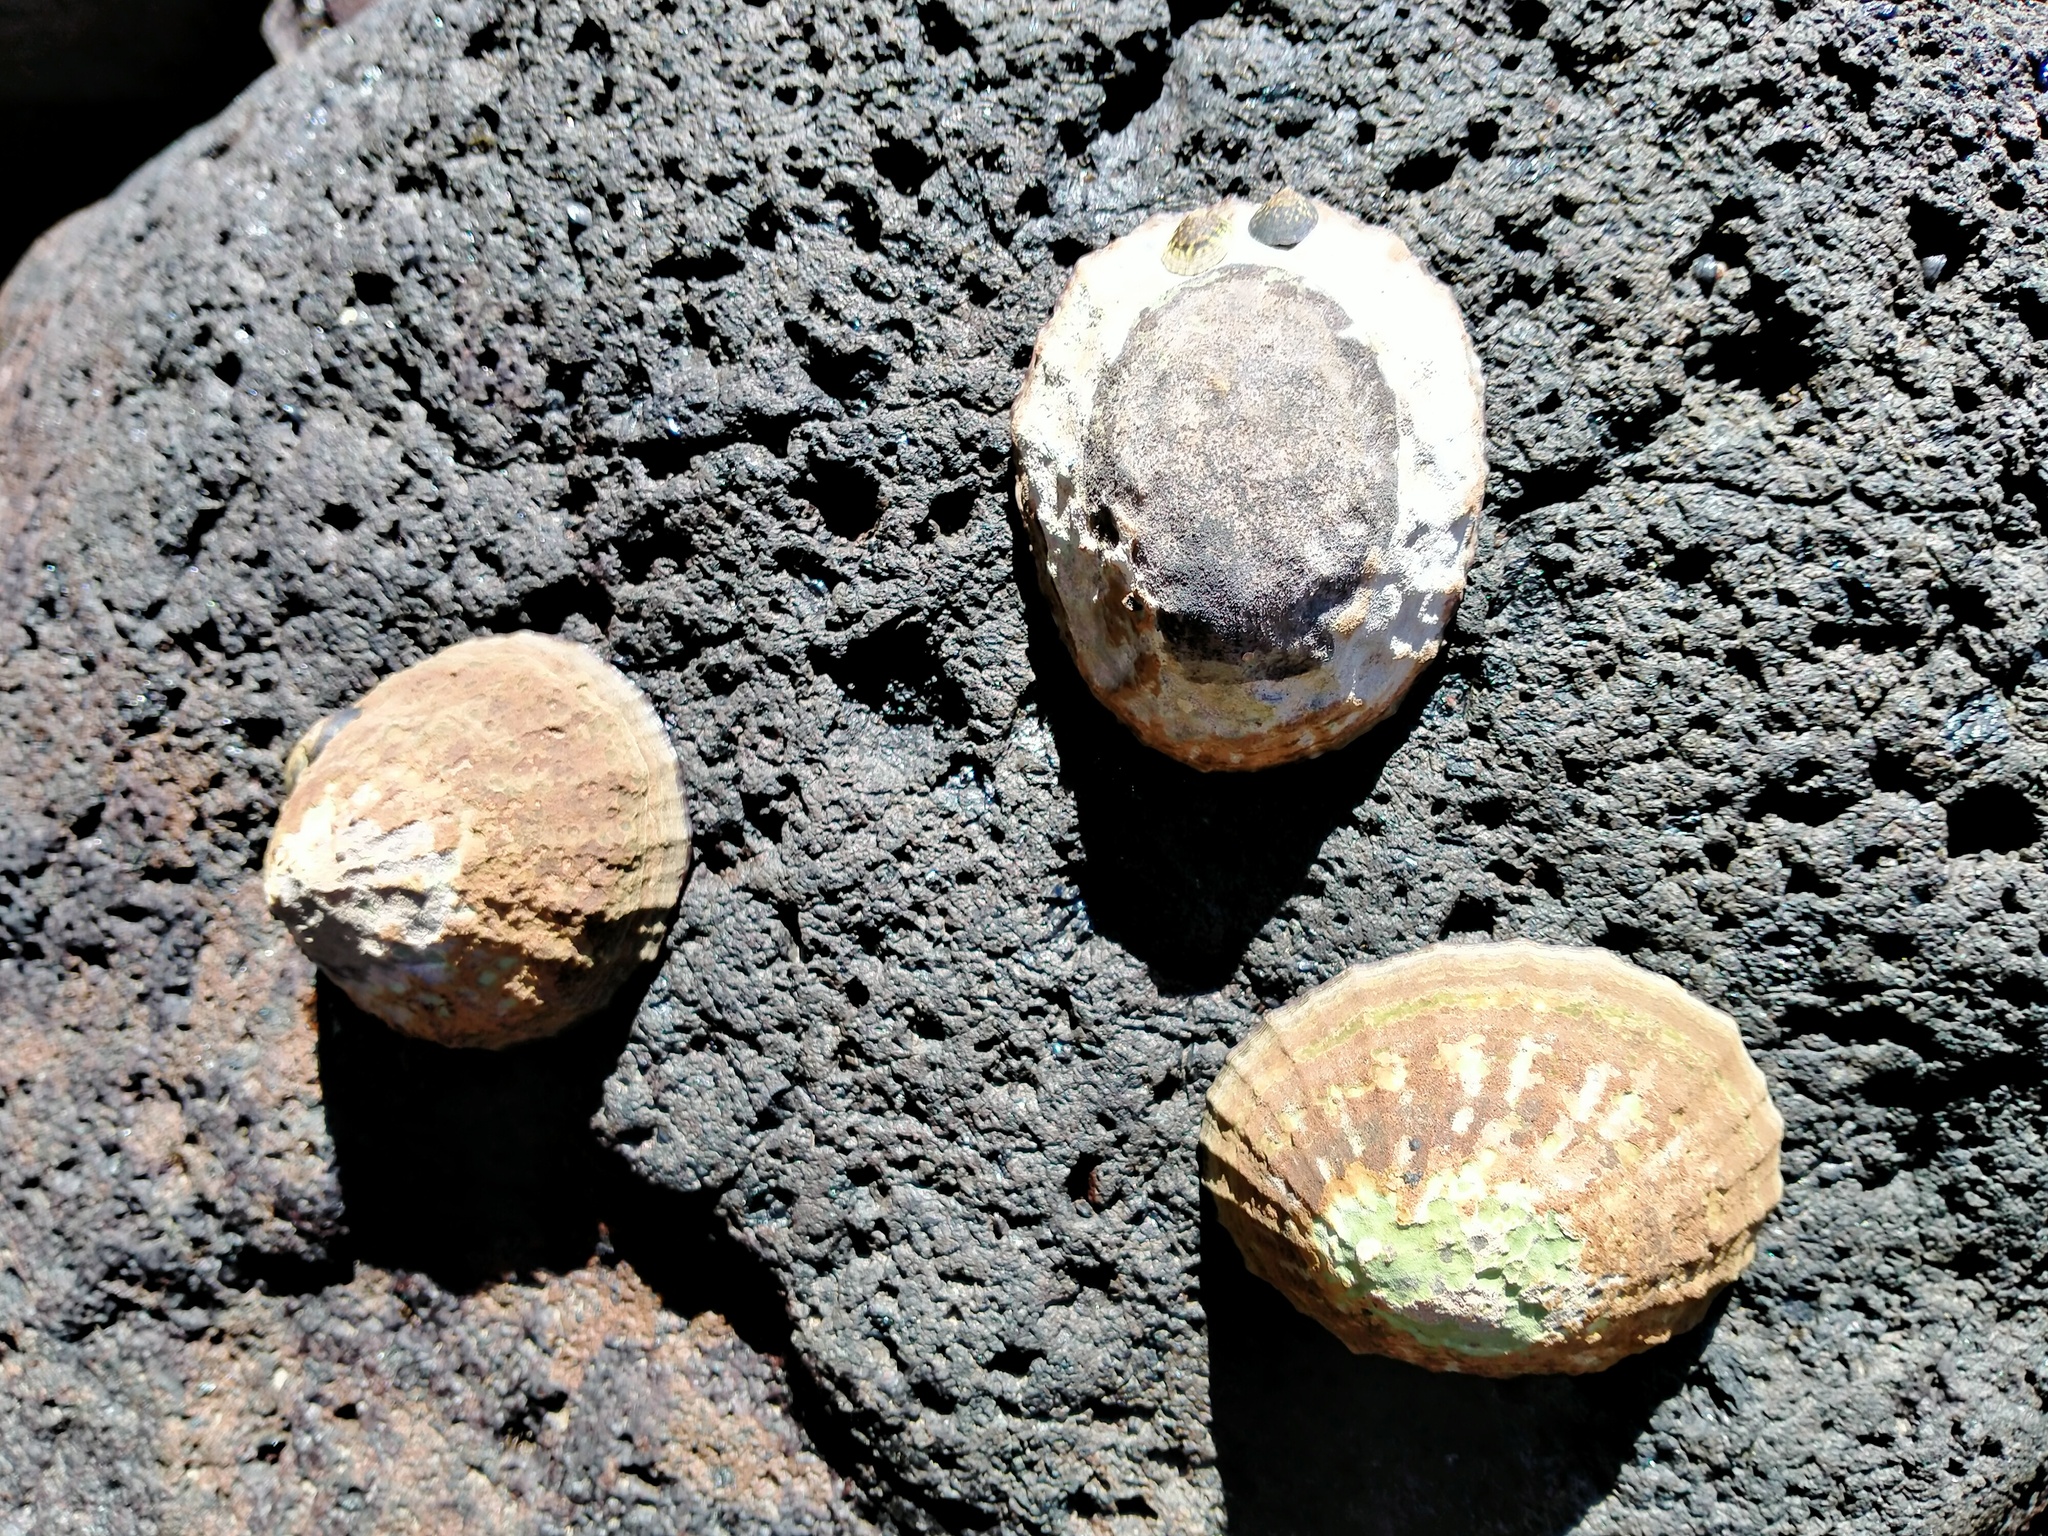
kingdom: Animalia
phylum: Mollusca
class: Gastropoda
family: Nacellidae
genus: Cellana
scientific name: Cellana strigilis
